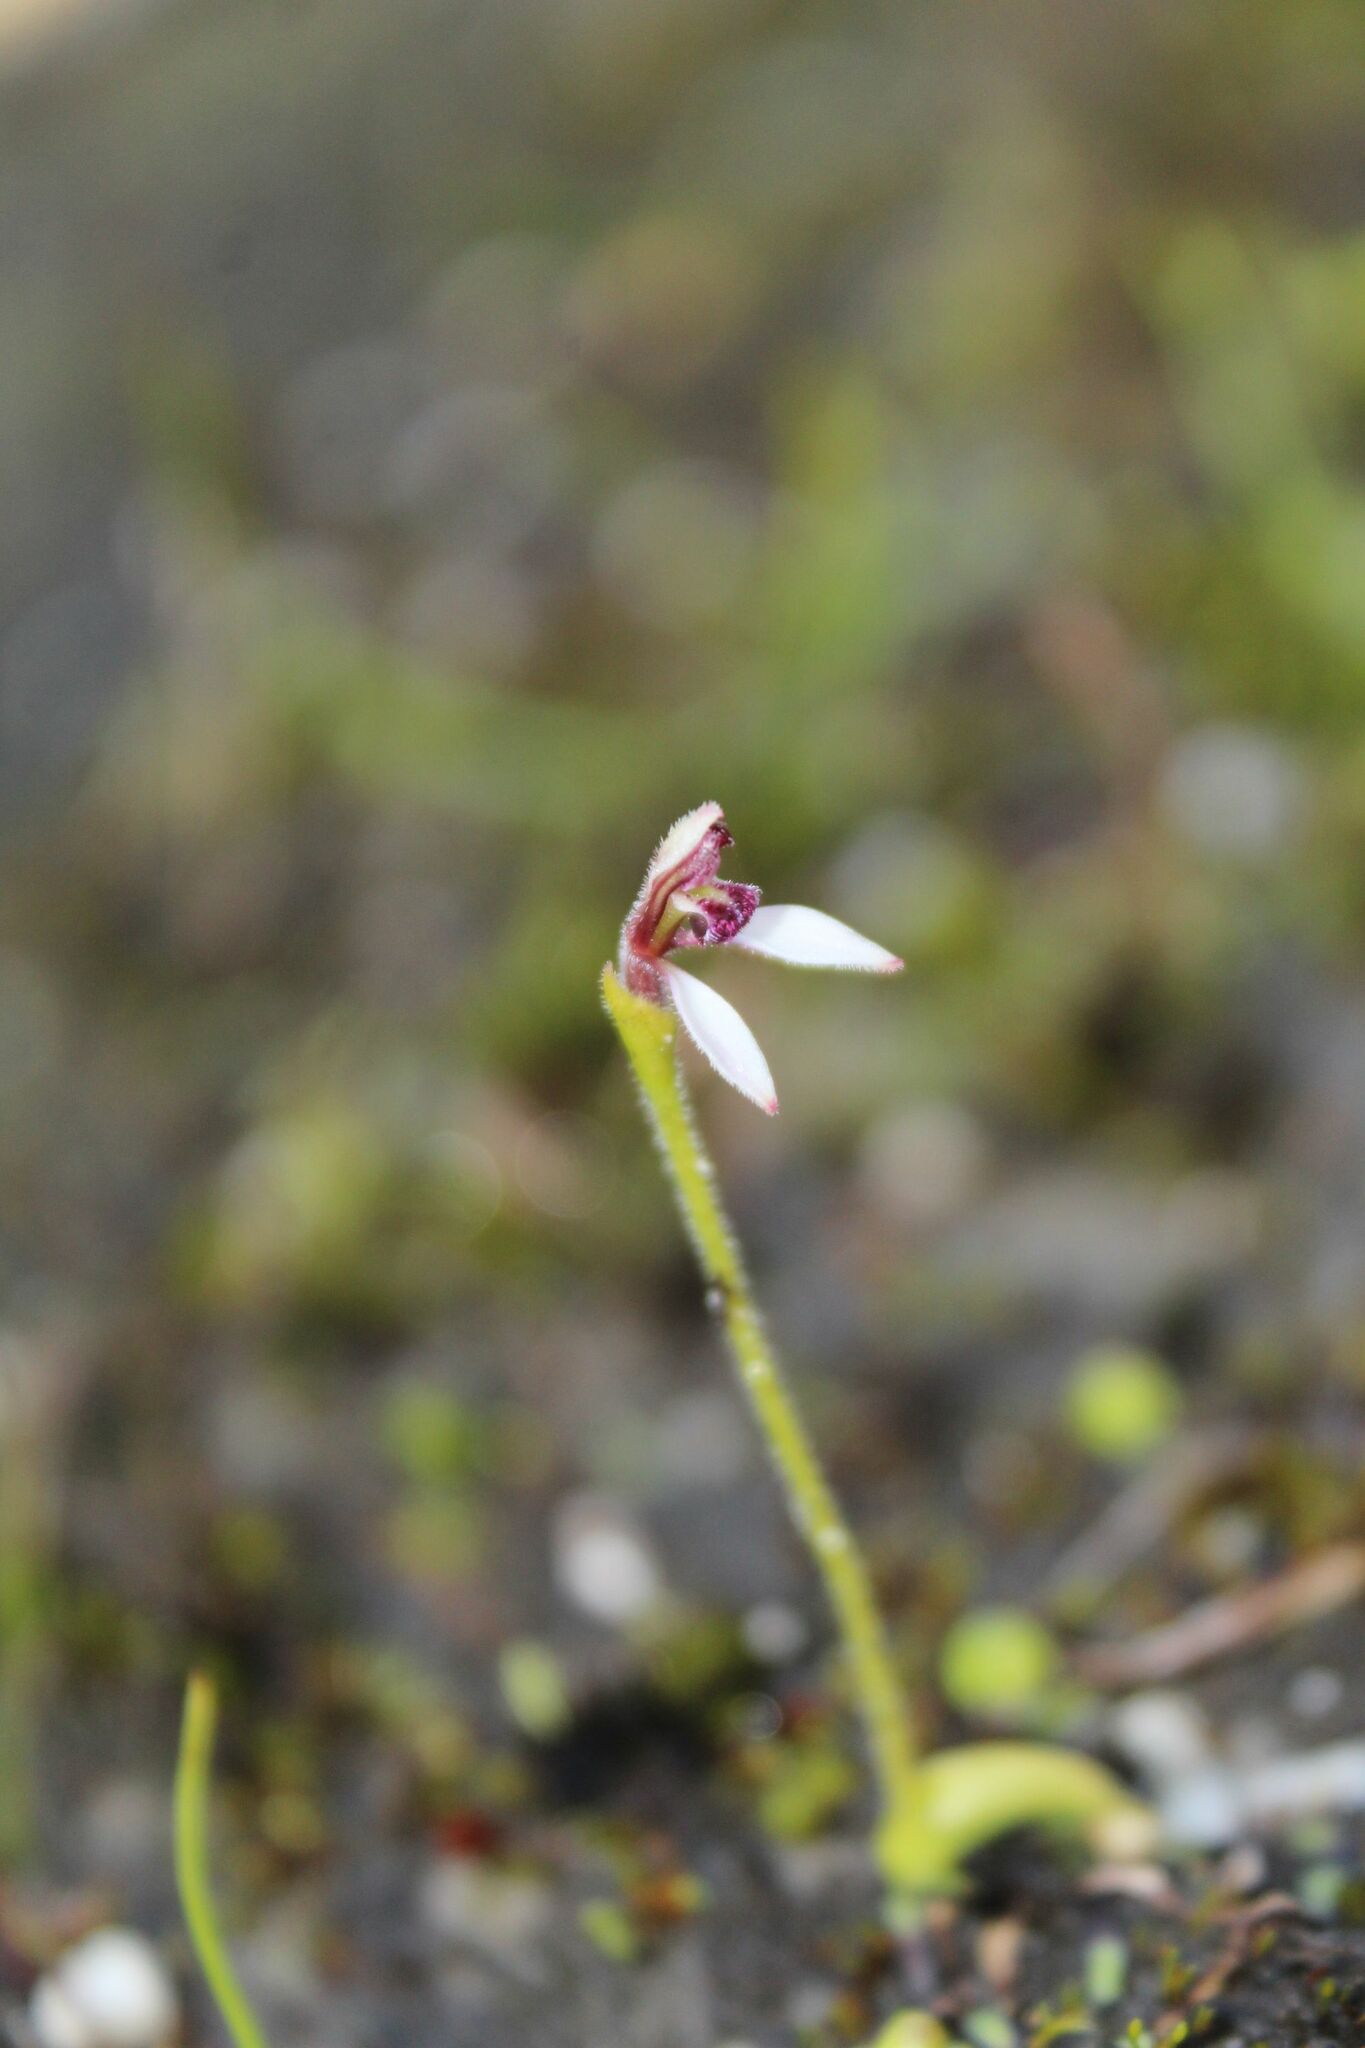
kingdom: Plantae
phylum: Tracheophyta
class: Liliopsida
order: Asparagales
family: Orchidaceae
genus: Eriochilus
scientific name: Eriochilus scaber
